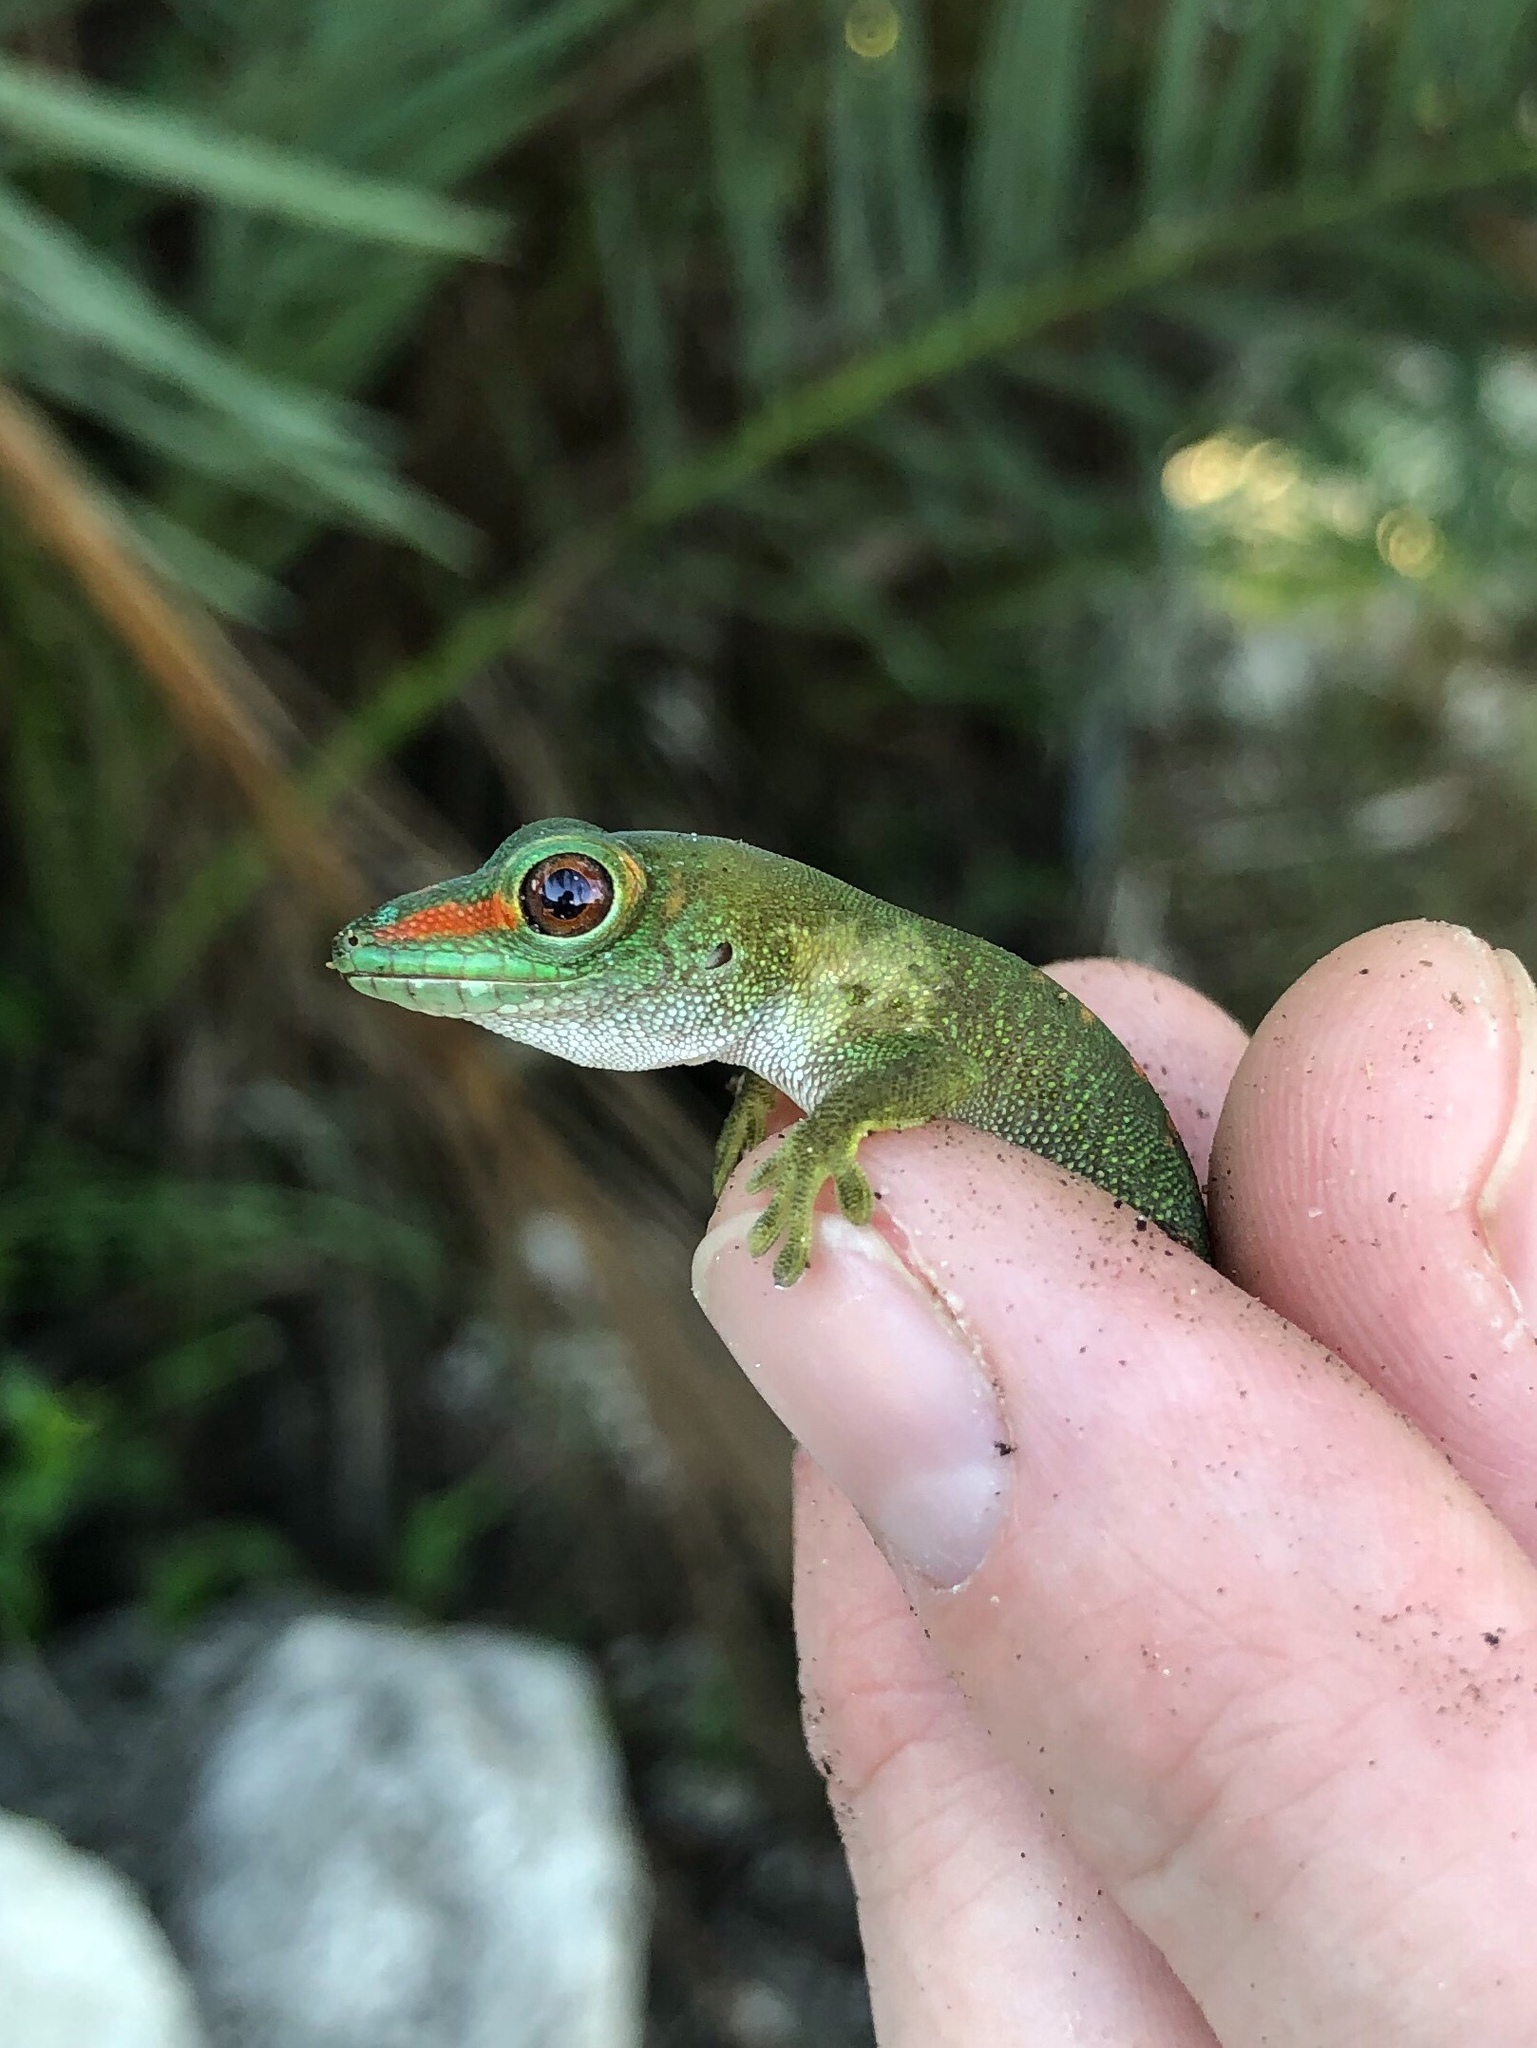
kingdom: Animalia
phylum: Chordata
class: Squamata
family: Gekkonidae
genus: Phelsuma
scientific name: Phelsuma grandis
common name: Madagascar giant day gecko
